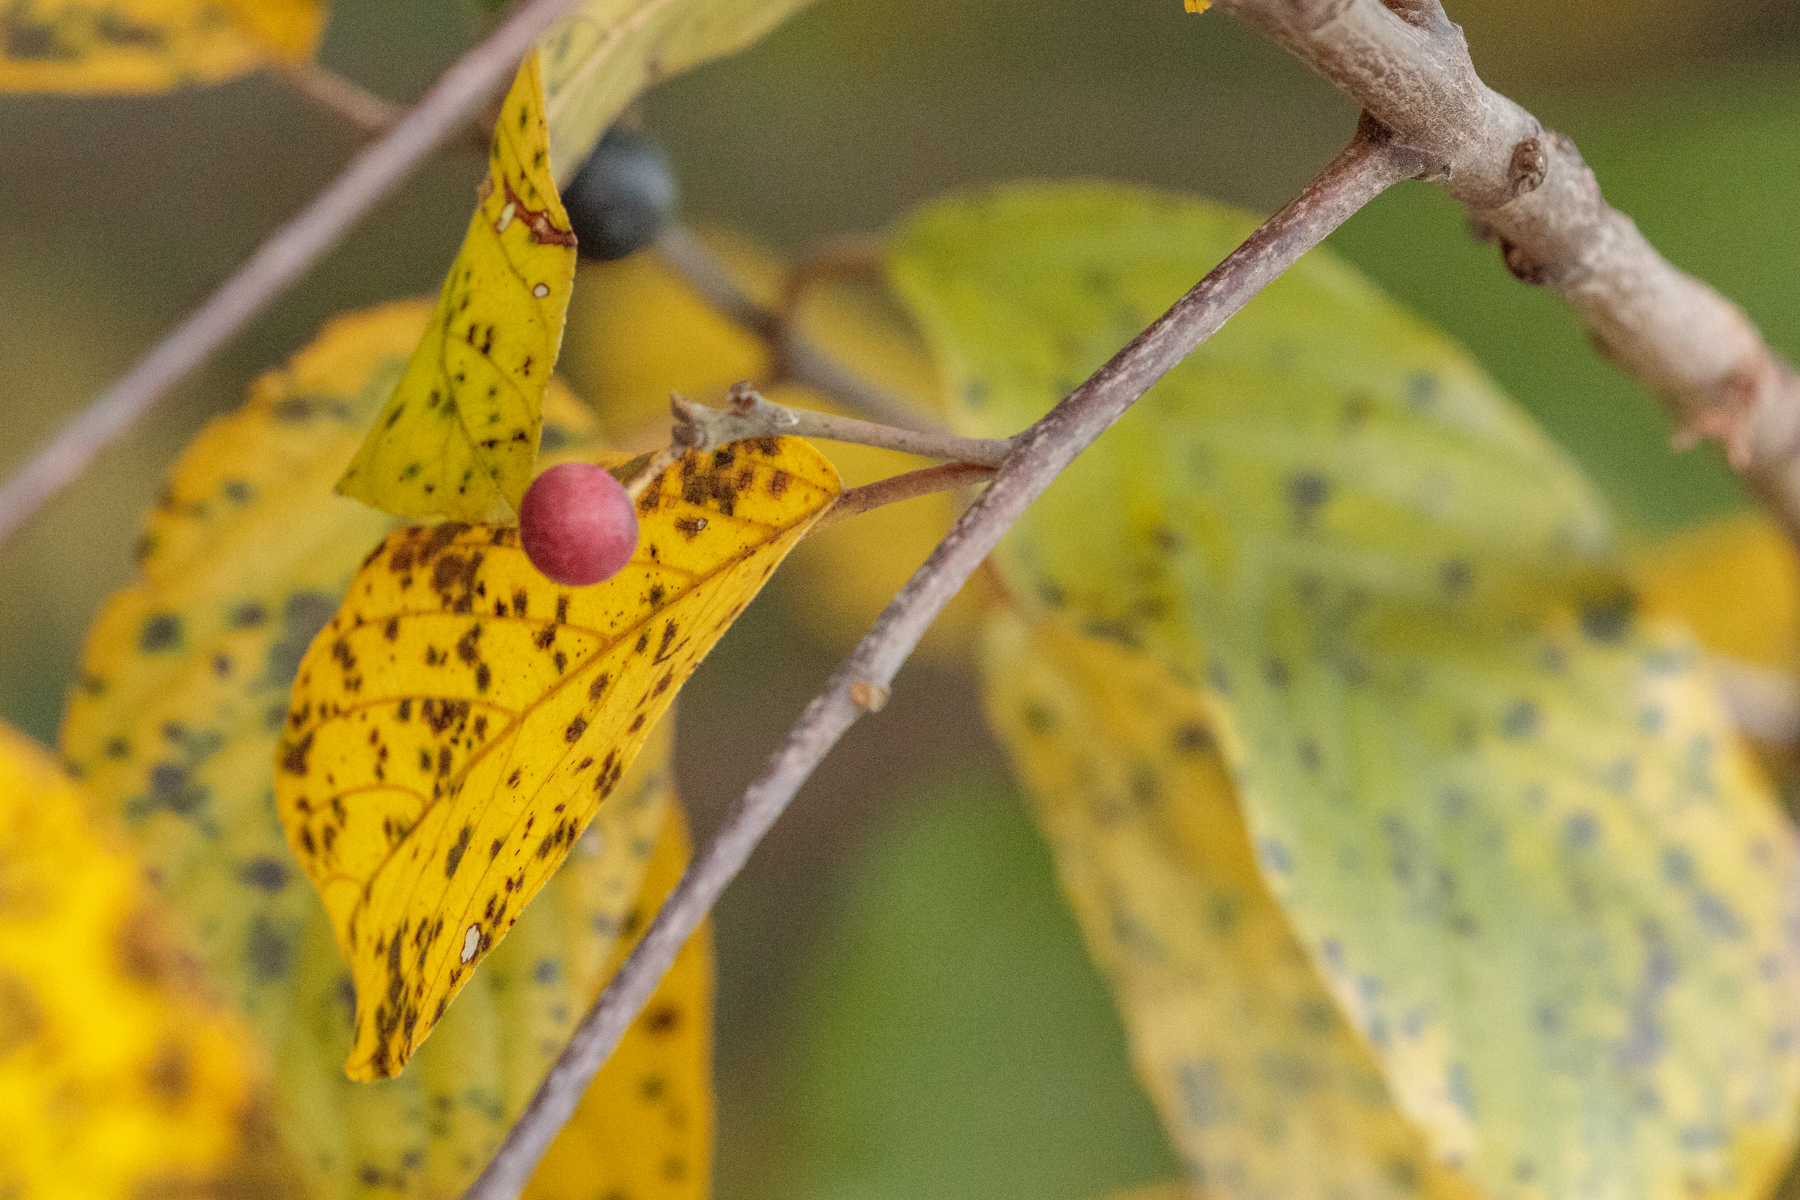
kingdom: Plantae
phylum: Tracheophyta
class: Magnoliopsida
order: Rosales
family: Rhamnaceae
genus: Frangula
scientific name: Frangula caroliniana
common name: Carolina buckthorn
